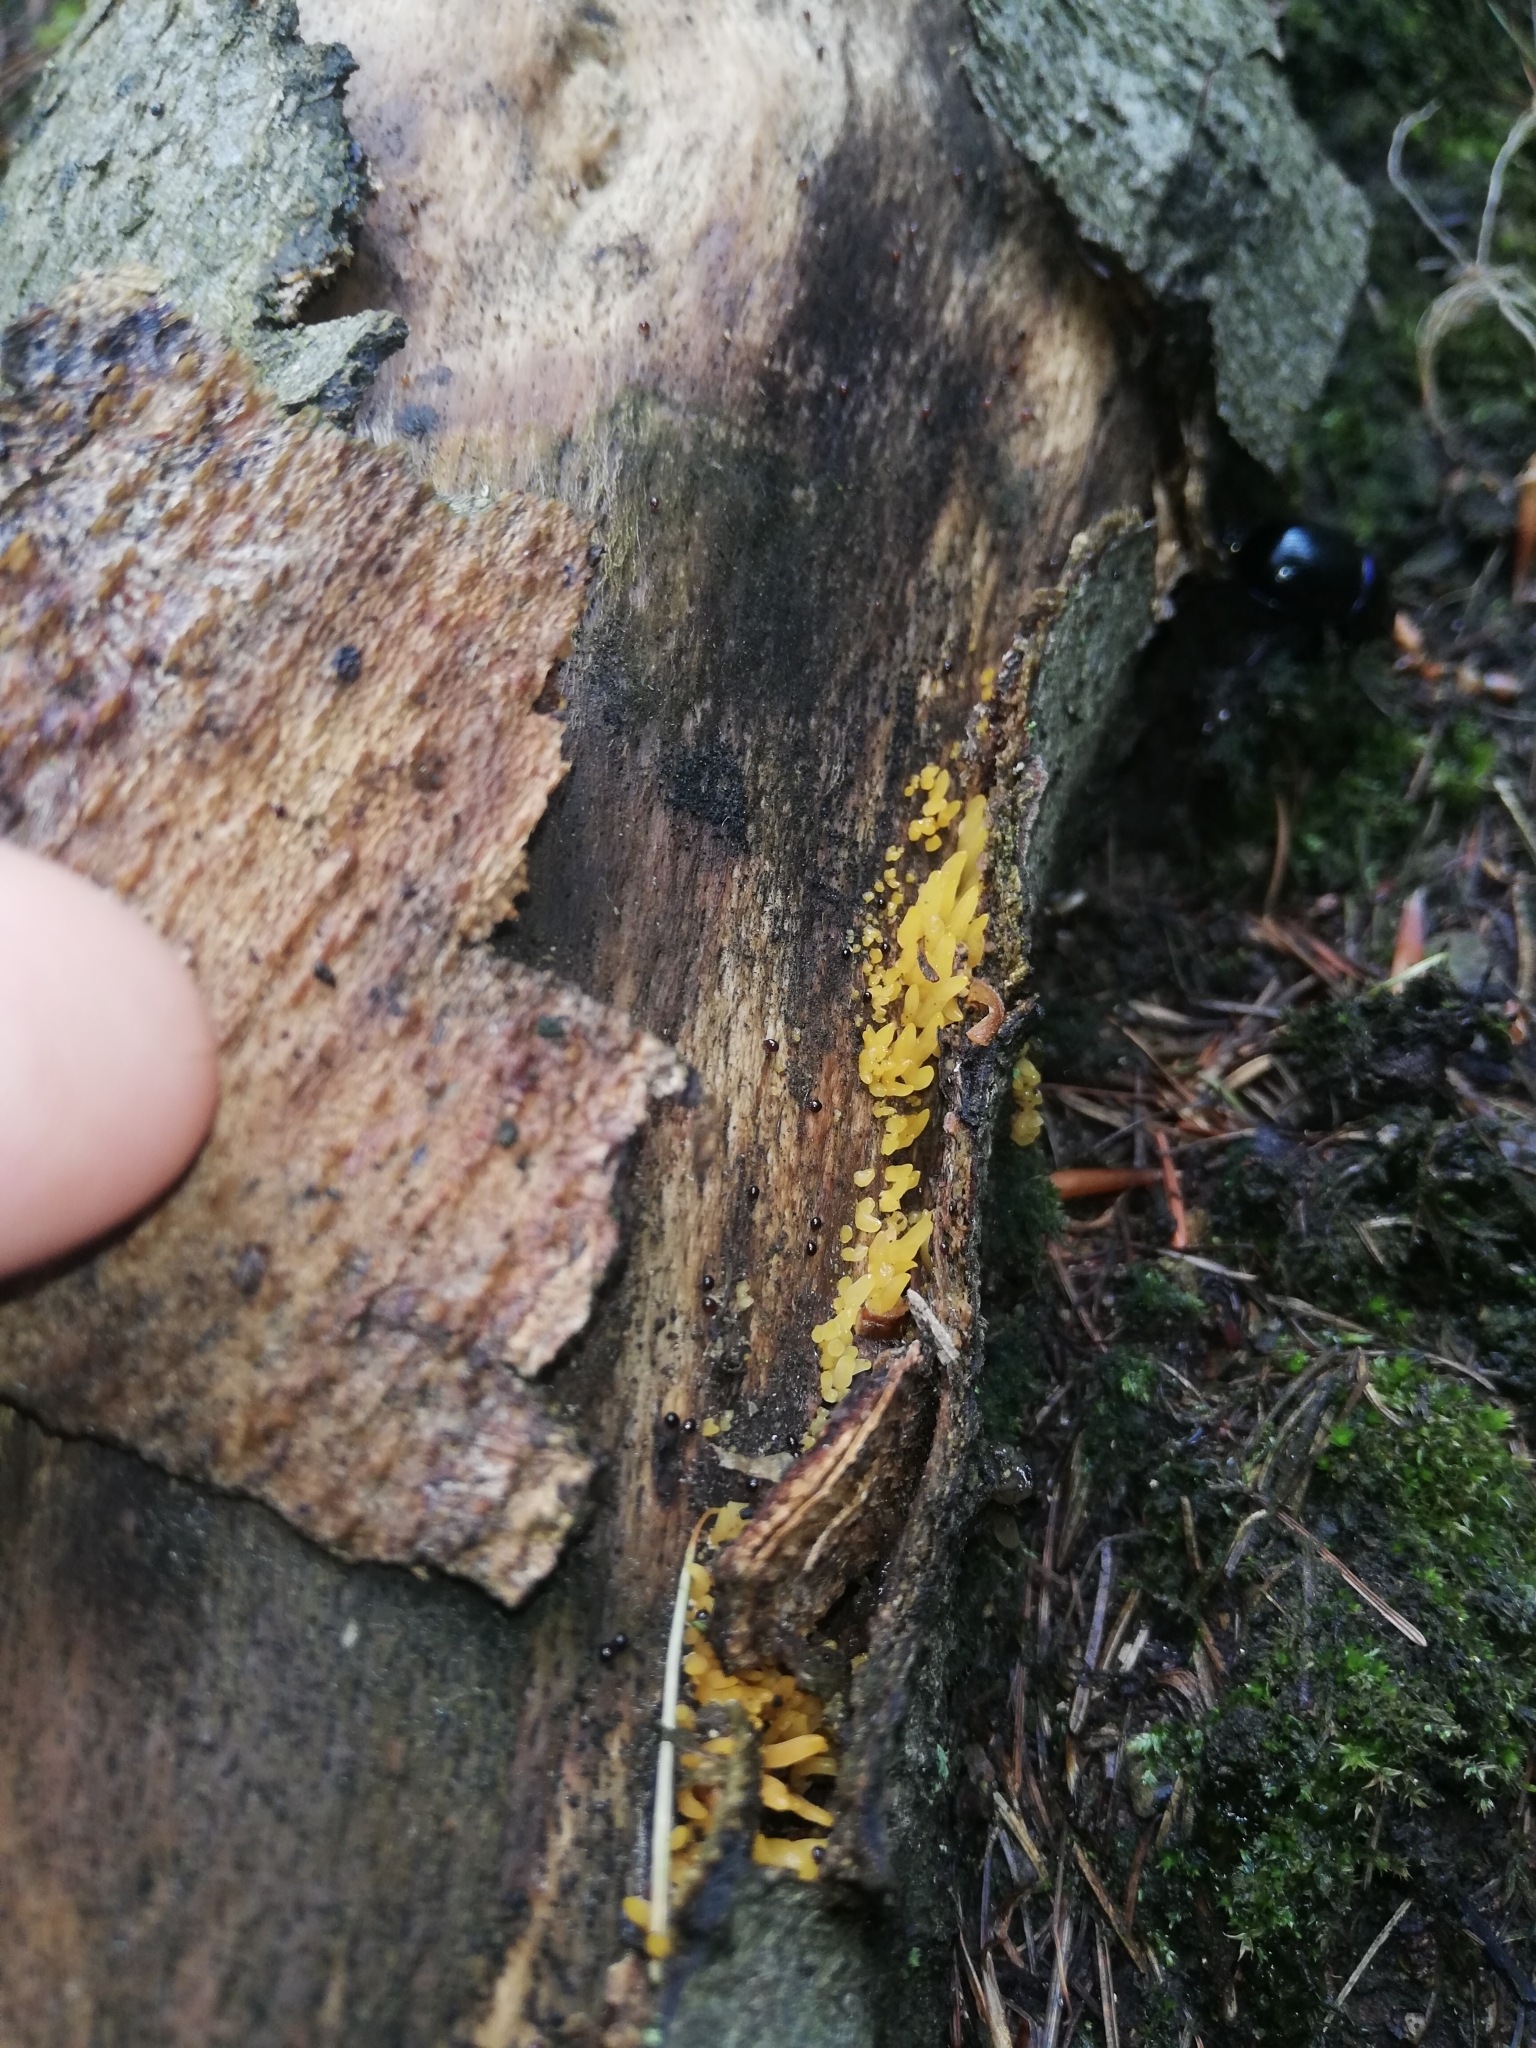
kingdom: Fungi
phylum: Basidiomycota
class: Dacrymycetes
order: Dacrymycetales
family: Dacrymycetaceae
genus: Calocera
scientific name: Calocera cornea
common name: Small stagshorn
